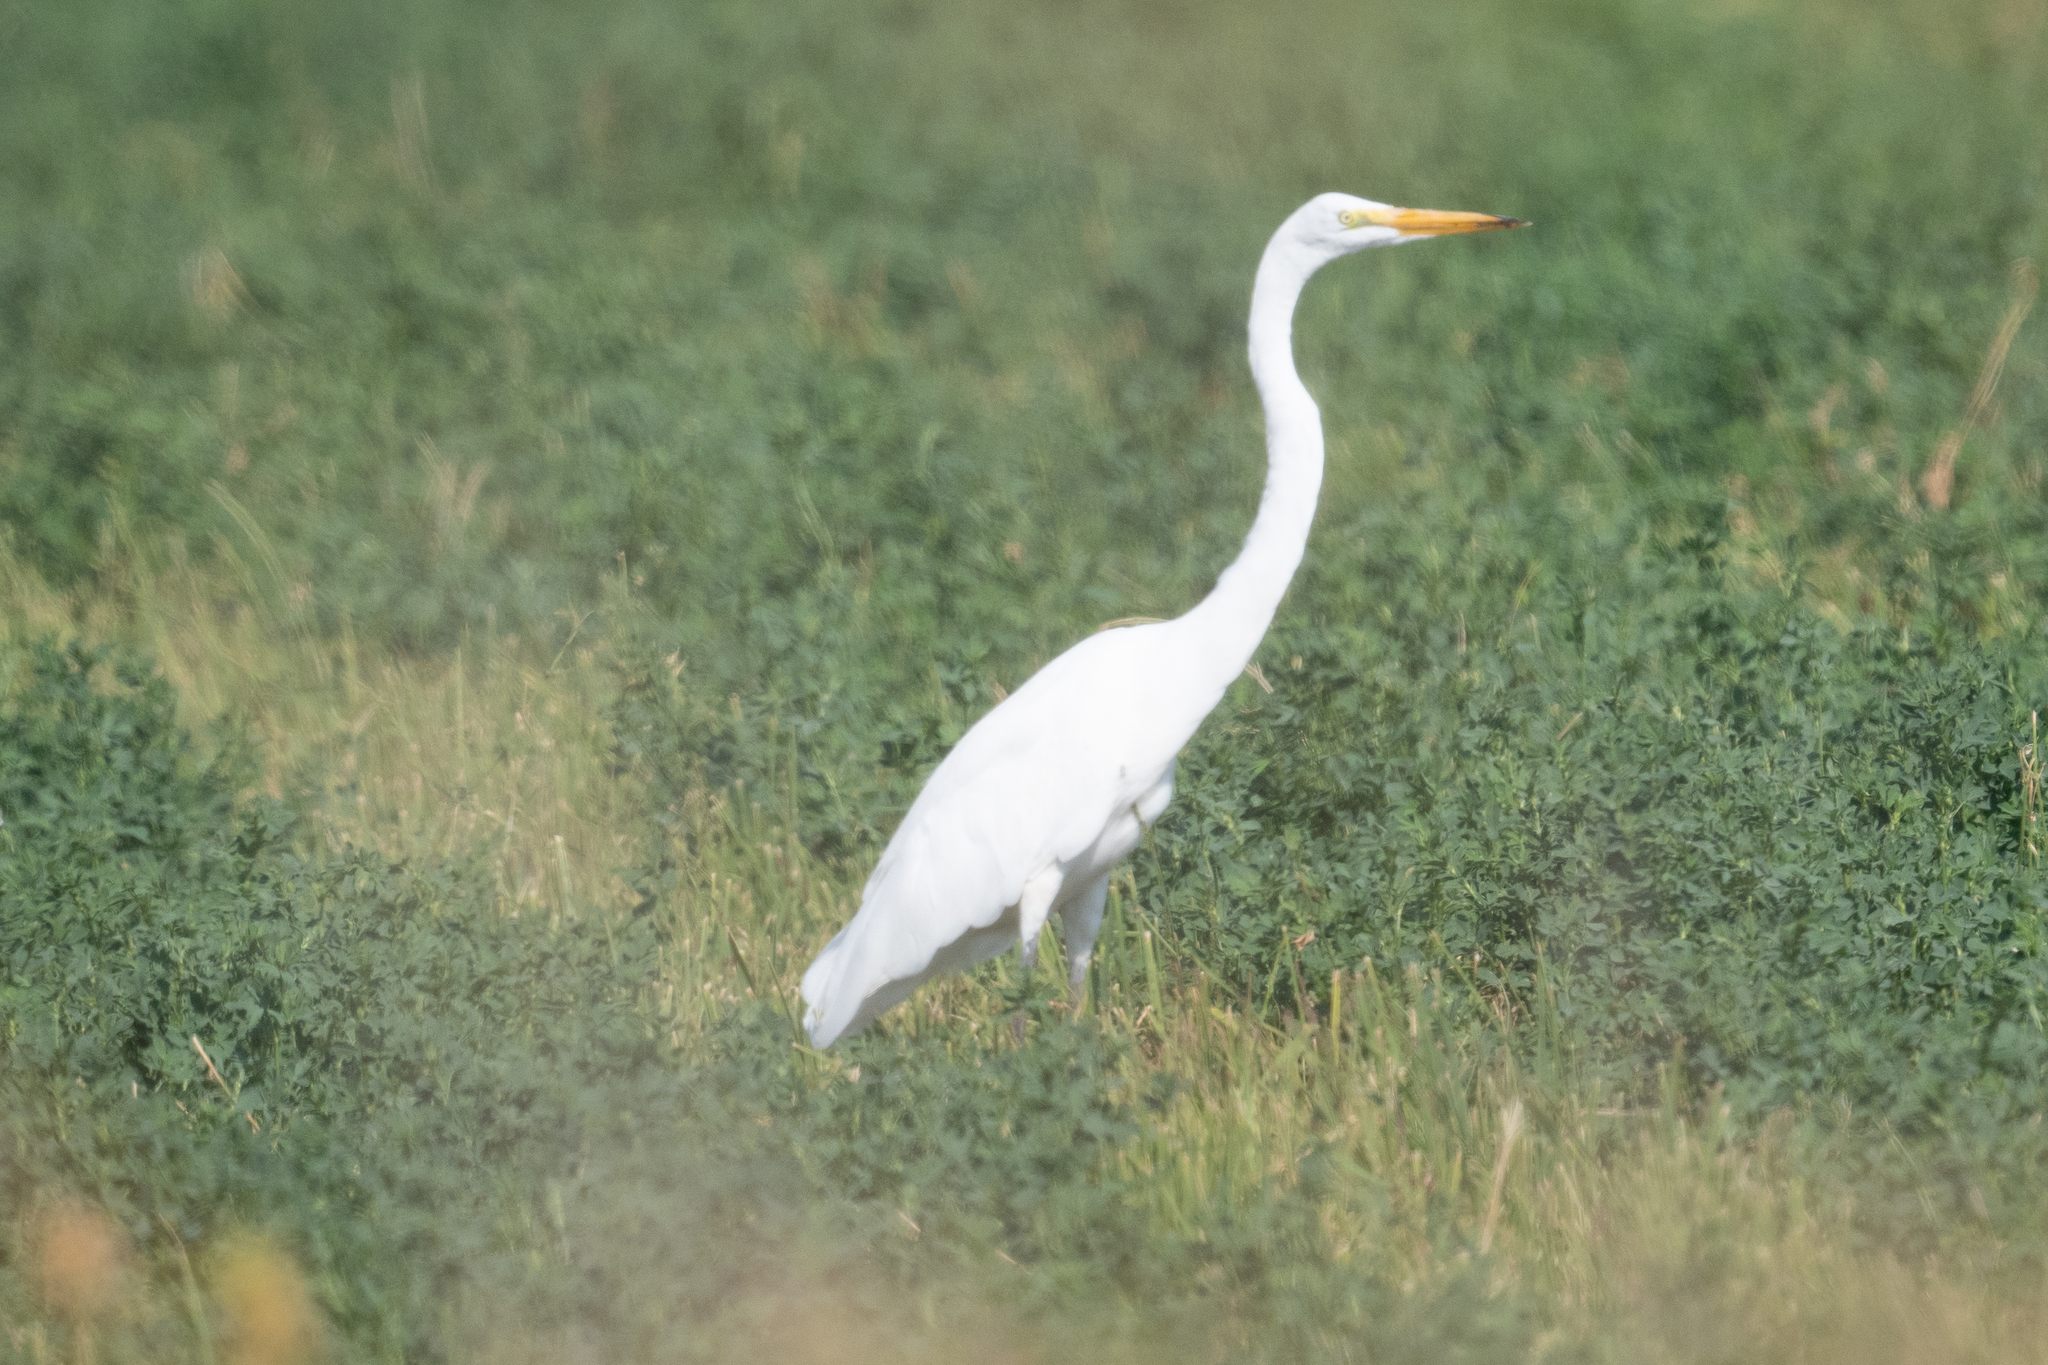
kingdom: Animalia
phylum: Chordata
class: Aves
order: Pelecaniformes
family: Ardeidae
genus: Ardea
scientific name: Ardea alba
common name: Great egret
